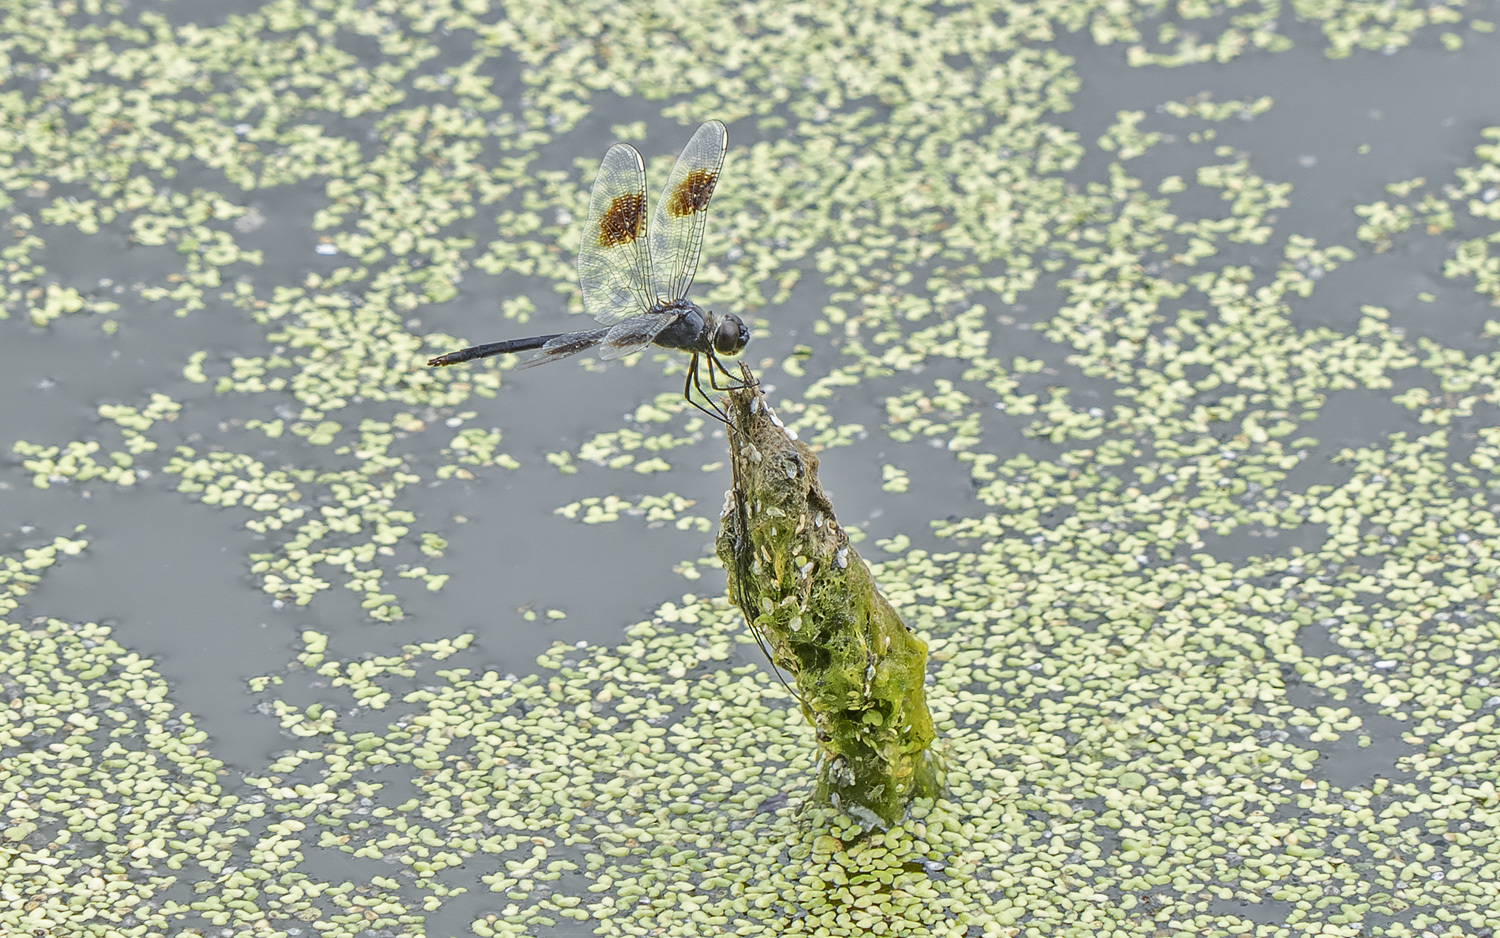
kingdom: Animalia
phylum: Arthropoda
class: Insecta
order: Odonata
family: Libellulidae
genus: Brachymesia
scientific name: Brachymesia gravida
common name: Four-spotted pennant
